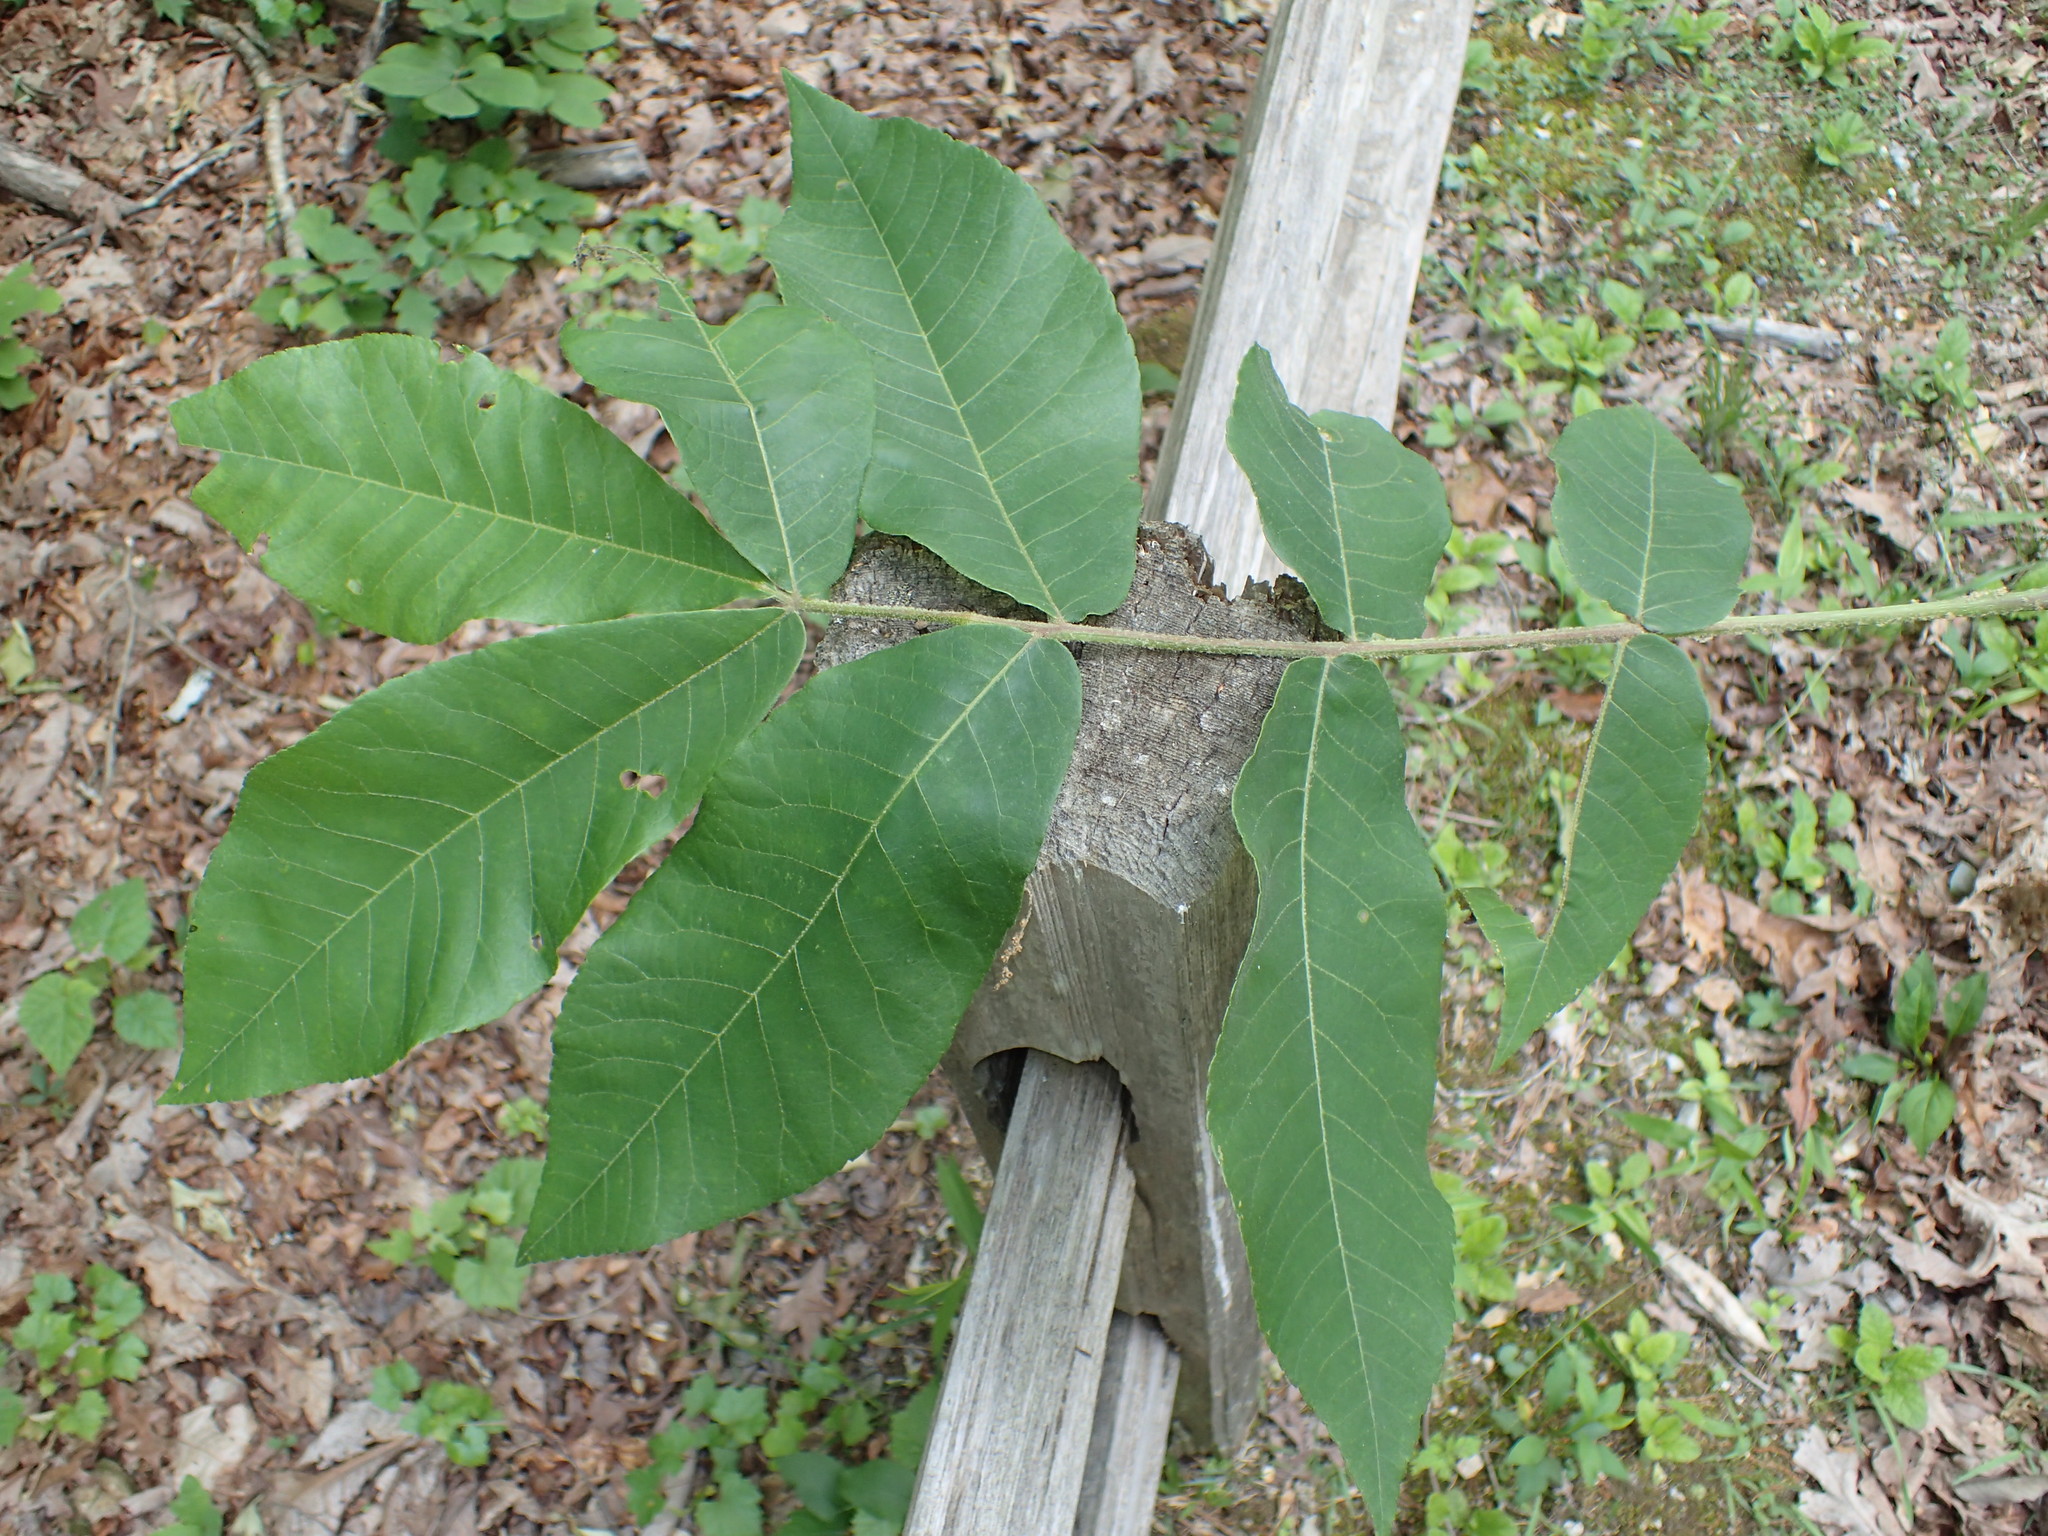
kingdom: Plantae
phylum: Tracheophyta
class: Magnoliopsida
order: Fagales
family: Juglandaceae
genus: Carya
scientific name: Carya alba
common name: Mockernut hickory
